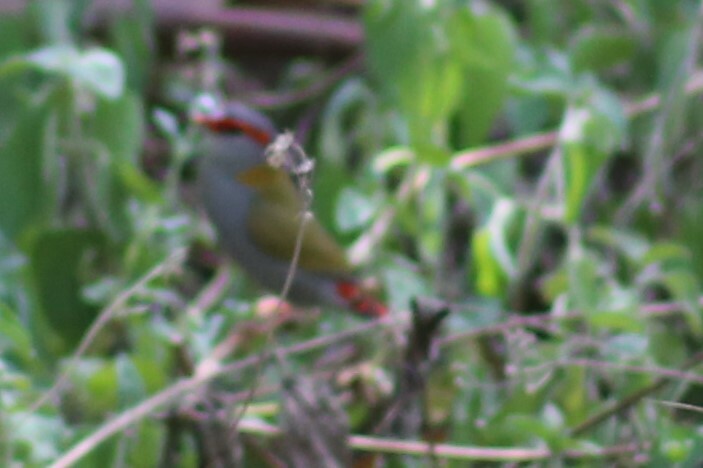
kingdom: Animalia
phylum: Chordata
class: Aves
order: Passeriformes
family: Estrildidae
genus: Neochmia
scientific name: Neochmia temporalis
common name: Red-browed finch
